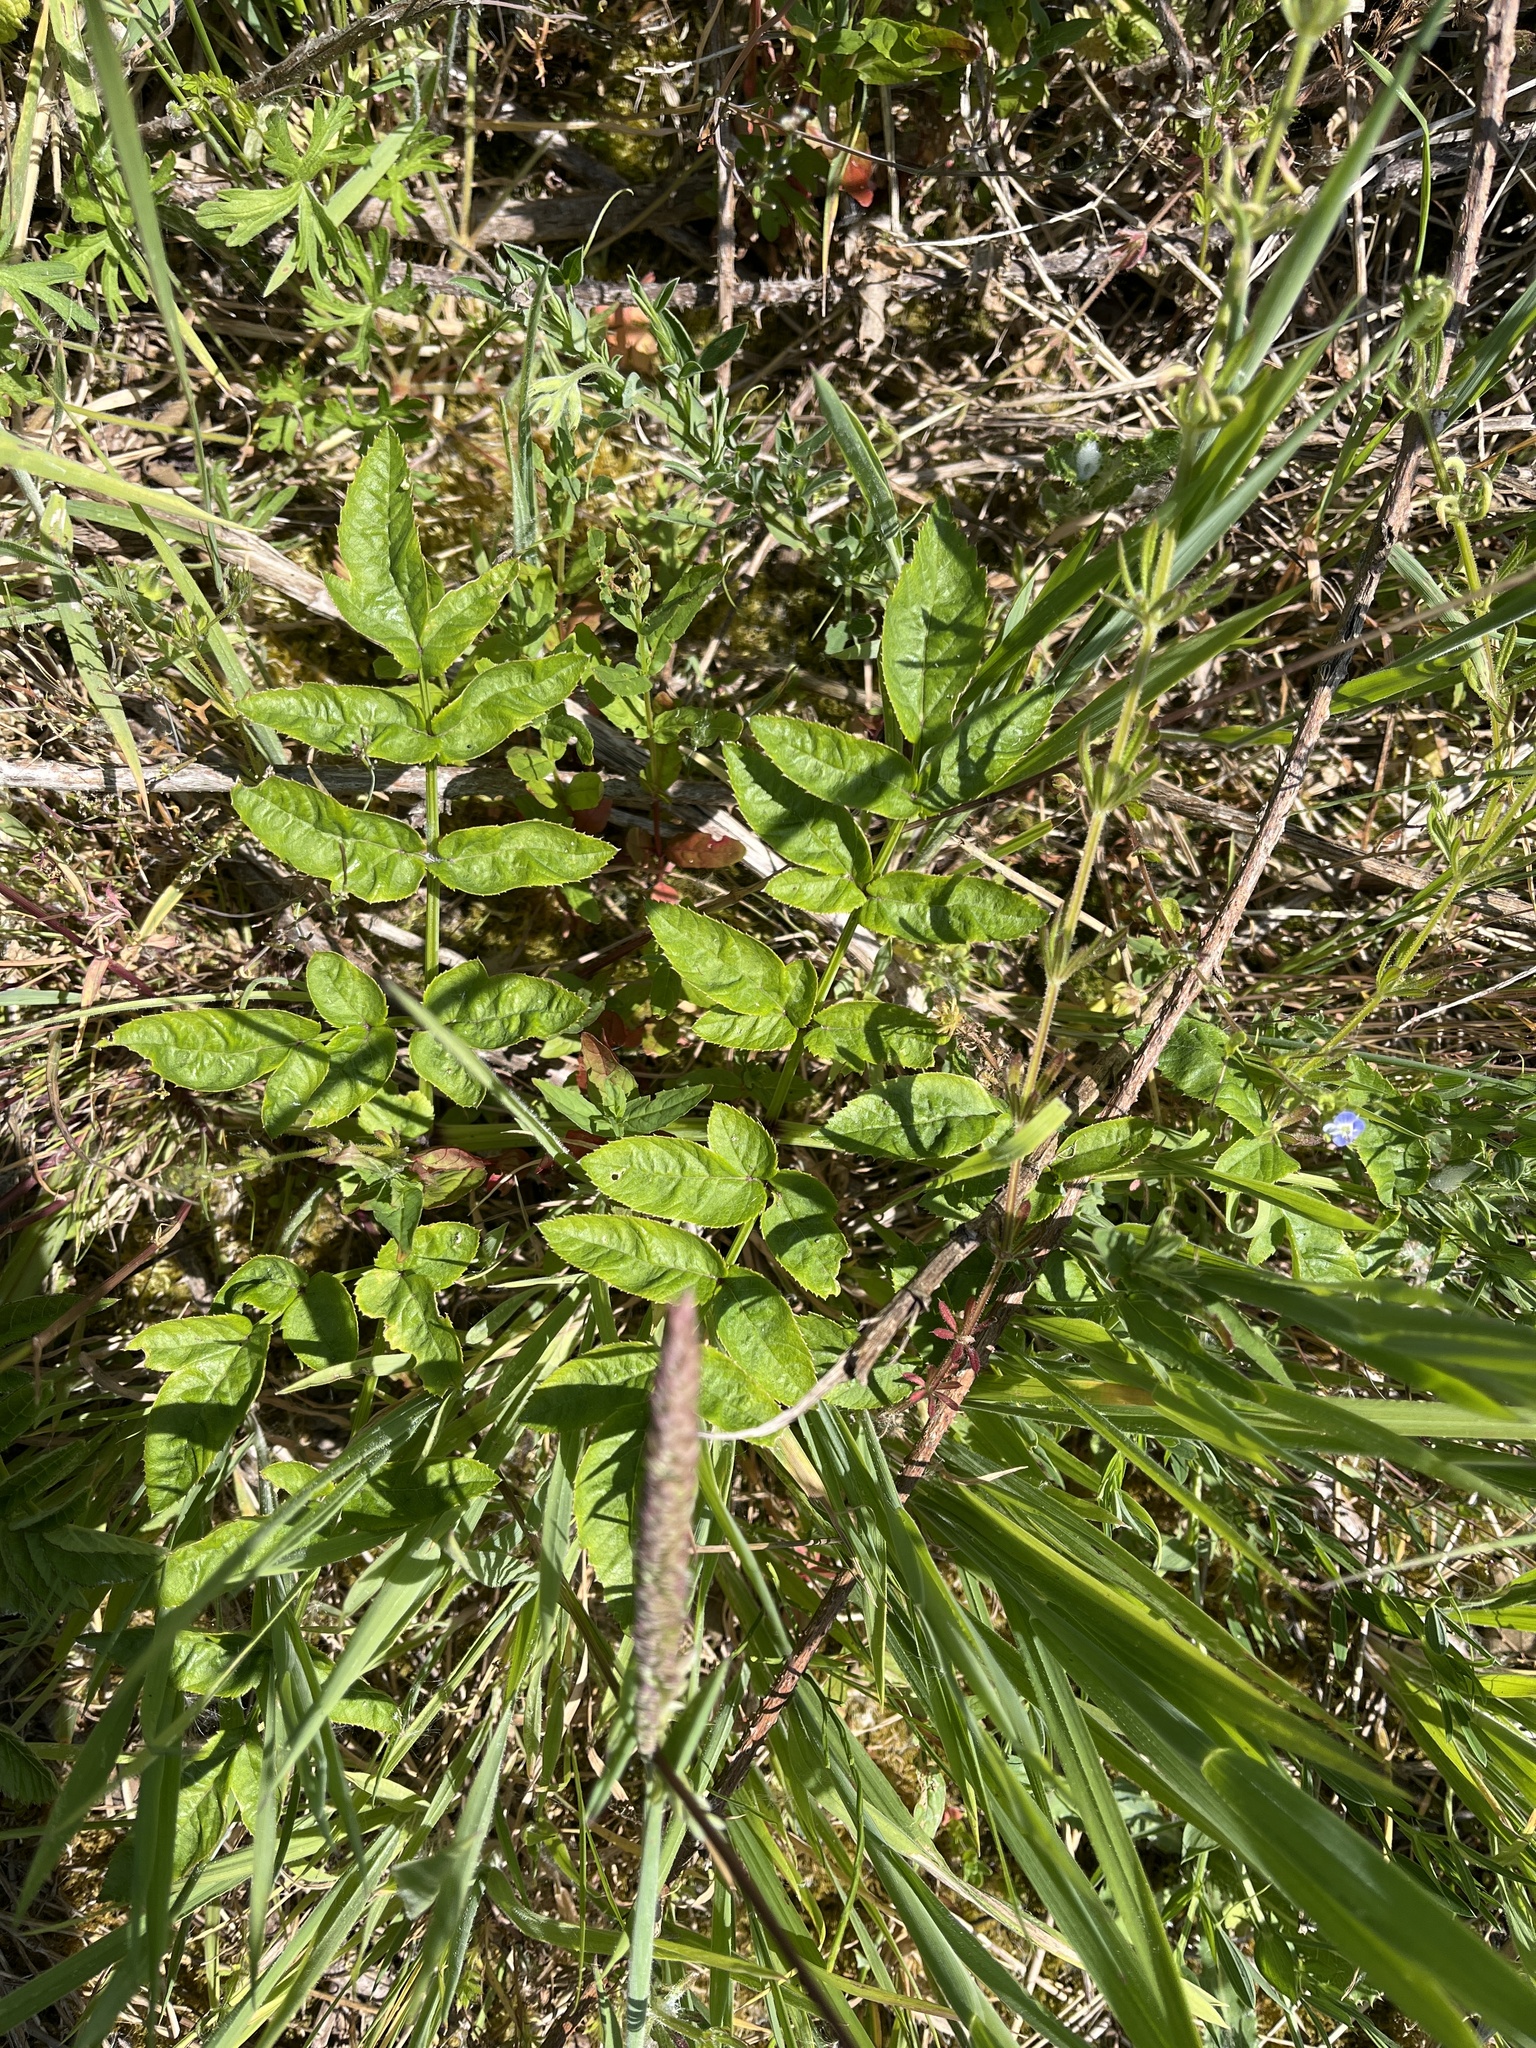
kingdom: Plantae
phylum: Tracheophyta
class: Magnoliopsida
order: Apiales
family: Apiaceae
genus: Angelica
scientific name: Angelica sylvestris
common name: Wild angelica
